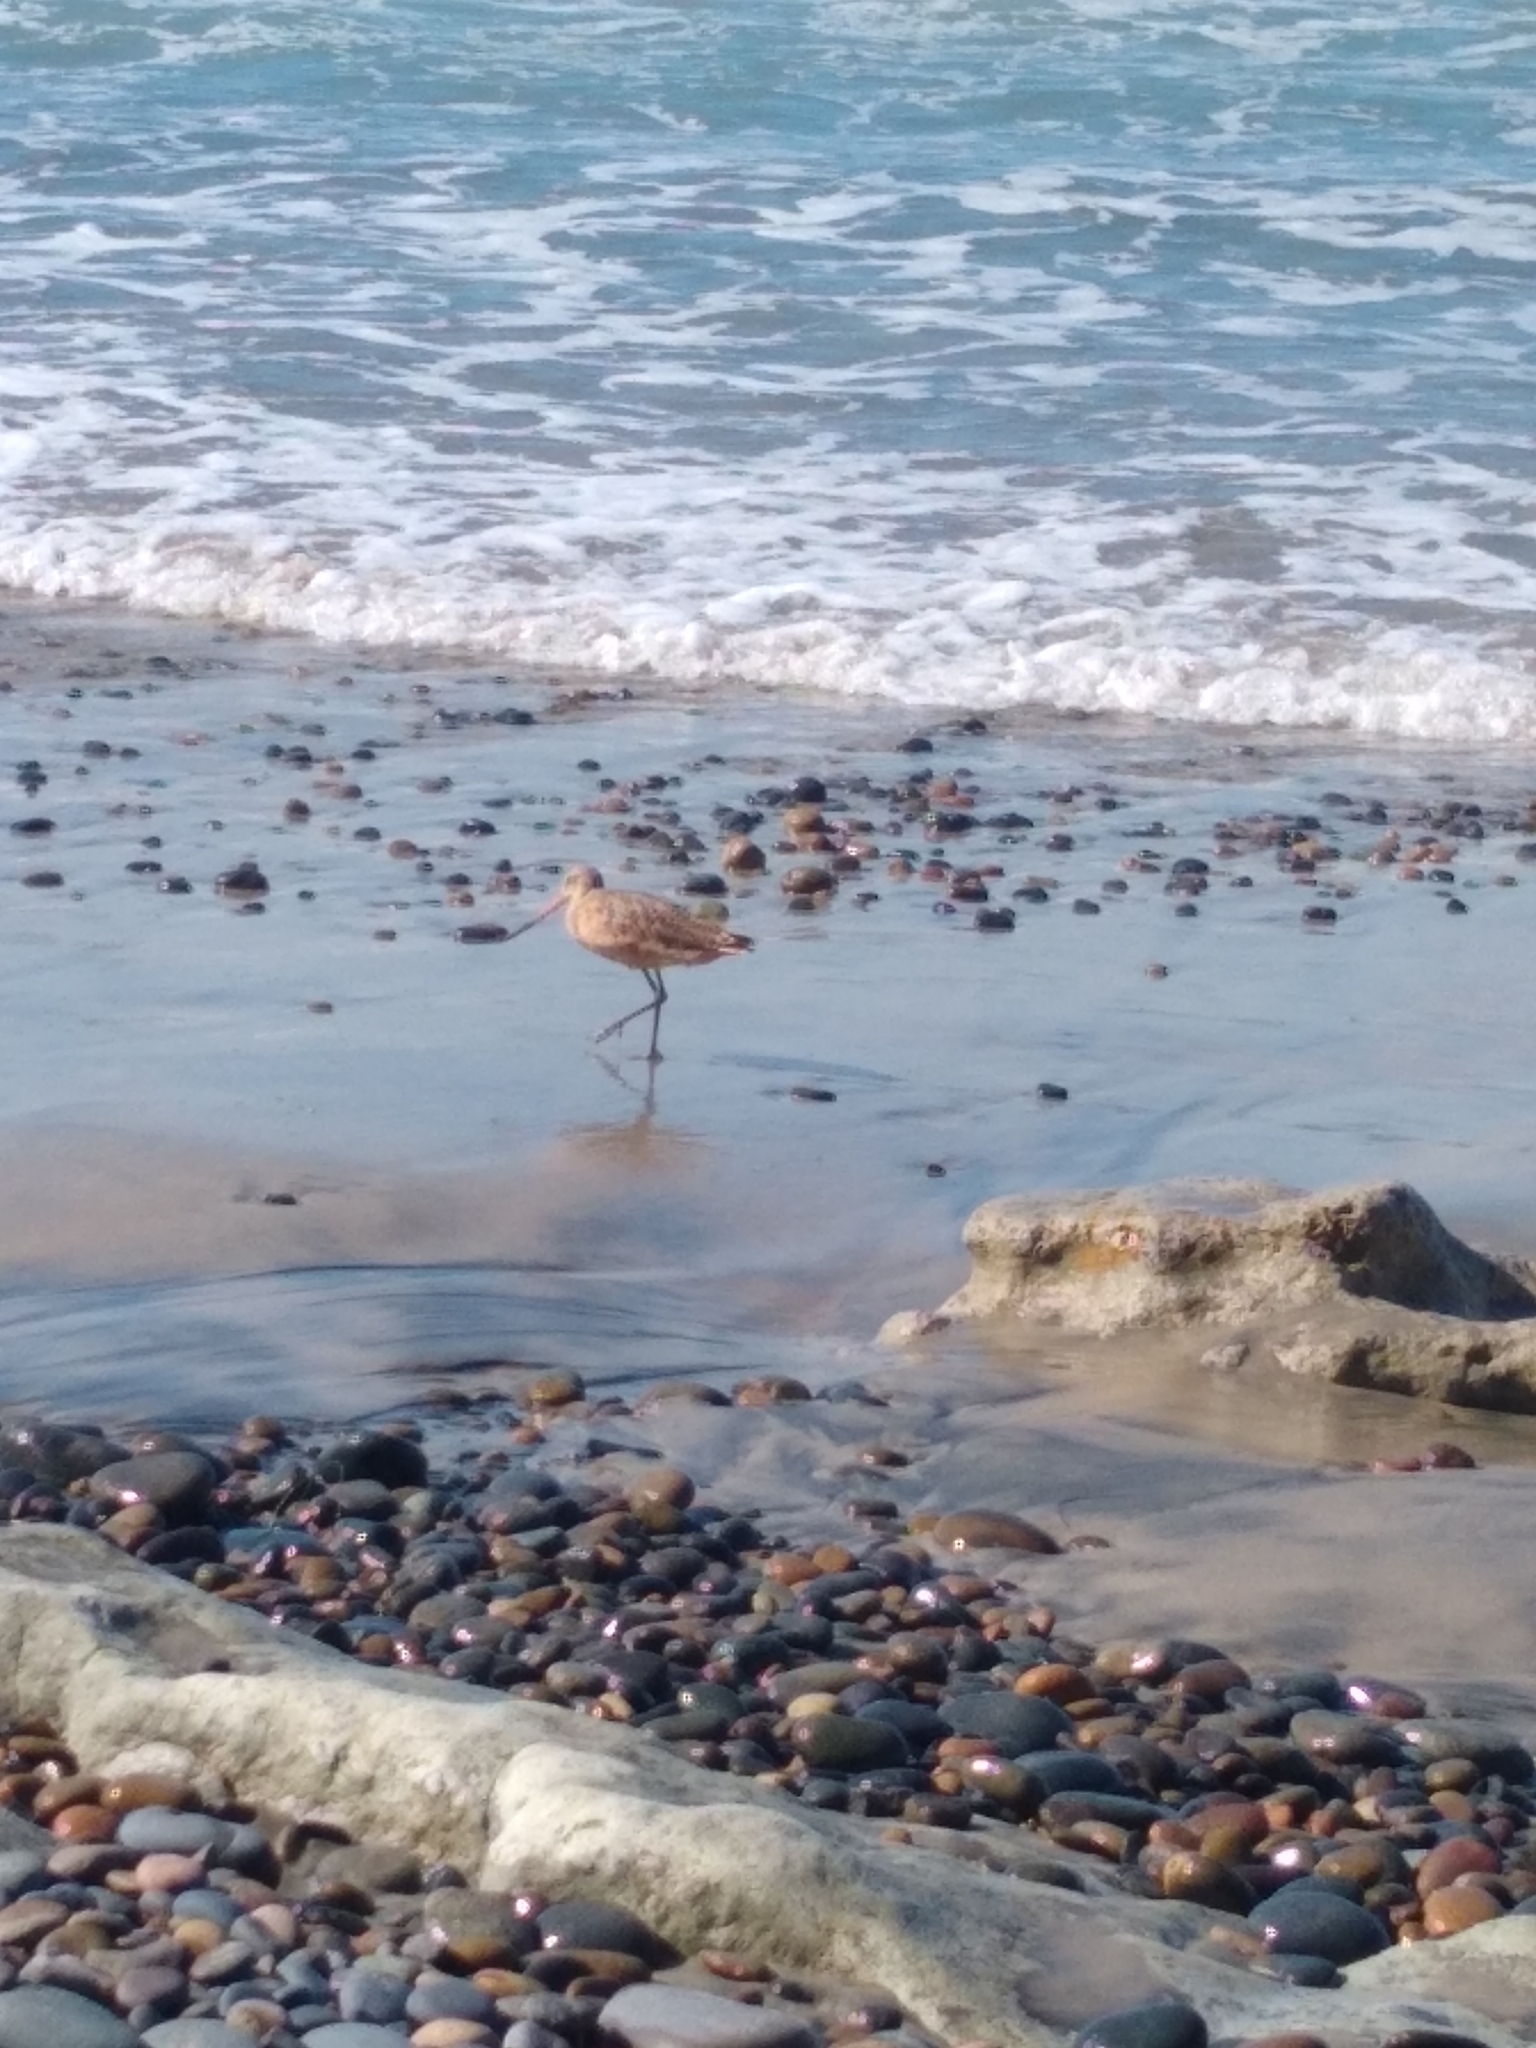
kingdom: Animalia
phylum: Chordata
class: Aves
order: Charadriiformes
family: Scolopacidae
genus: Limosa
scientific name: Limosa fedoa
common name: Marbled godwit
